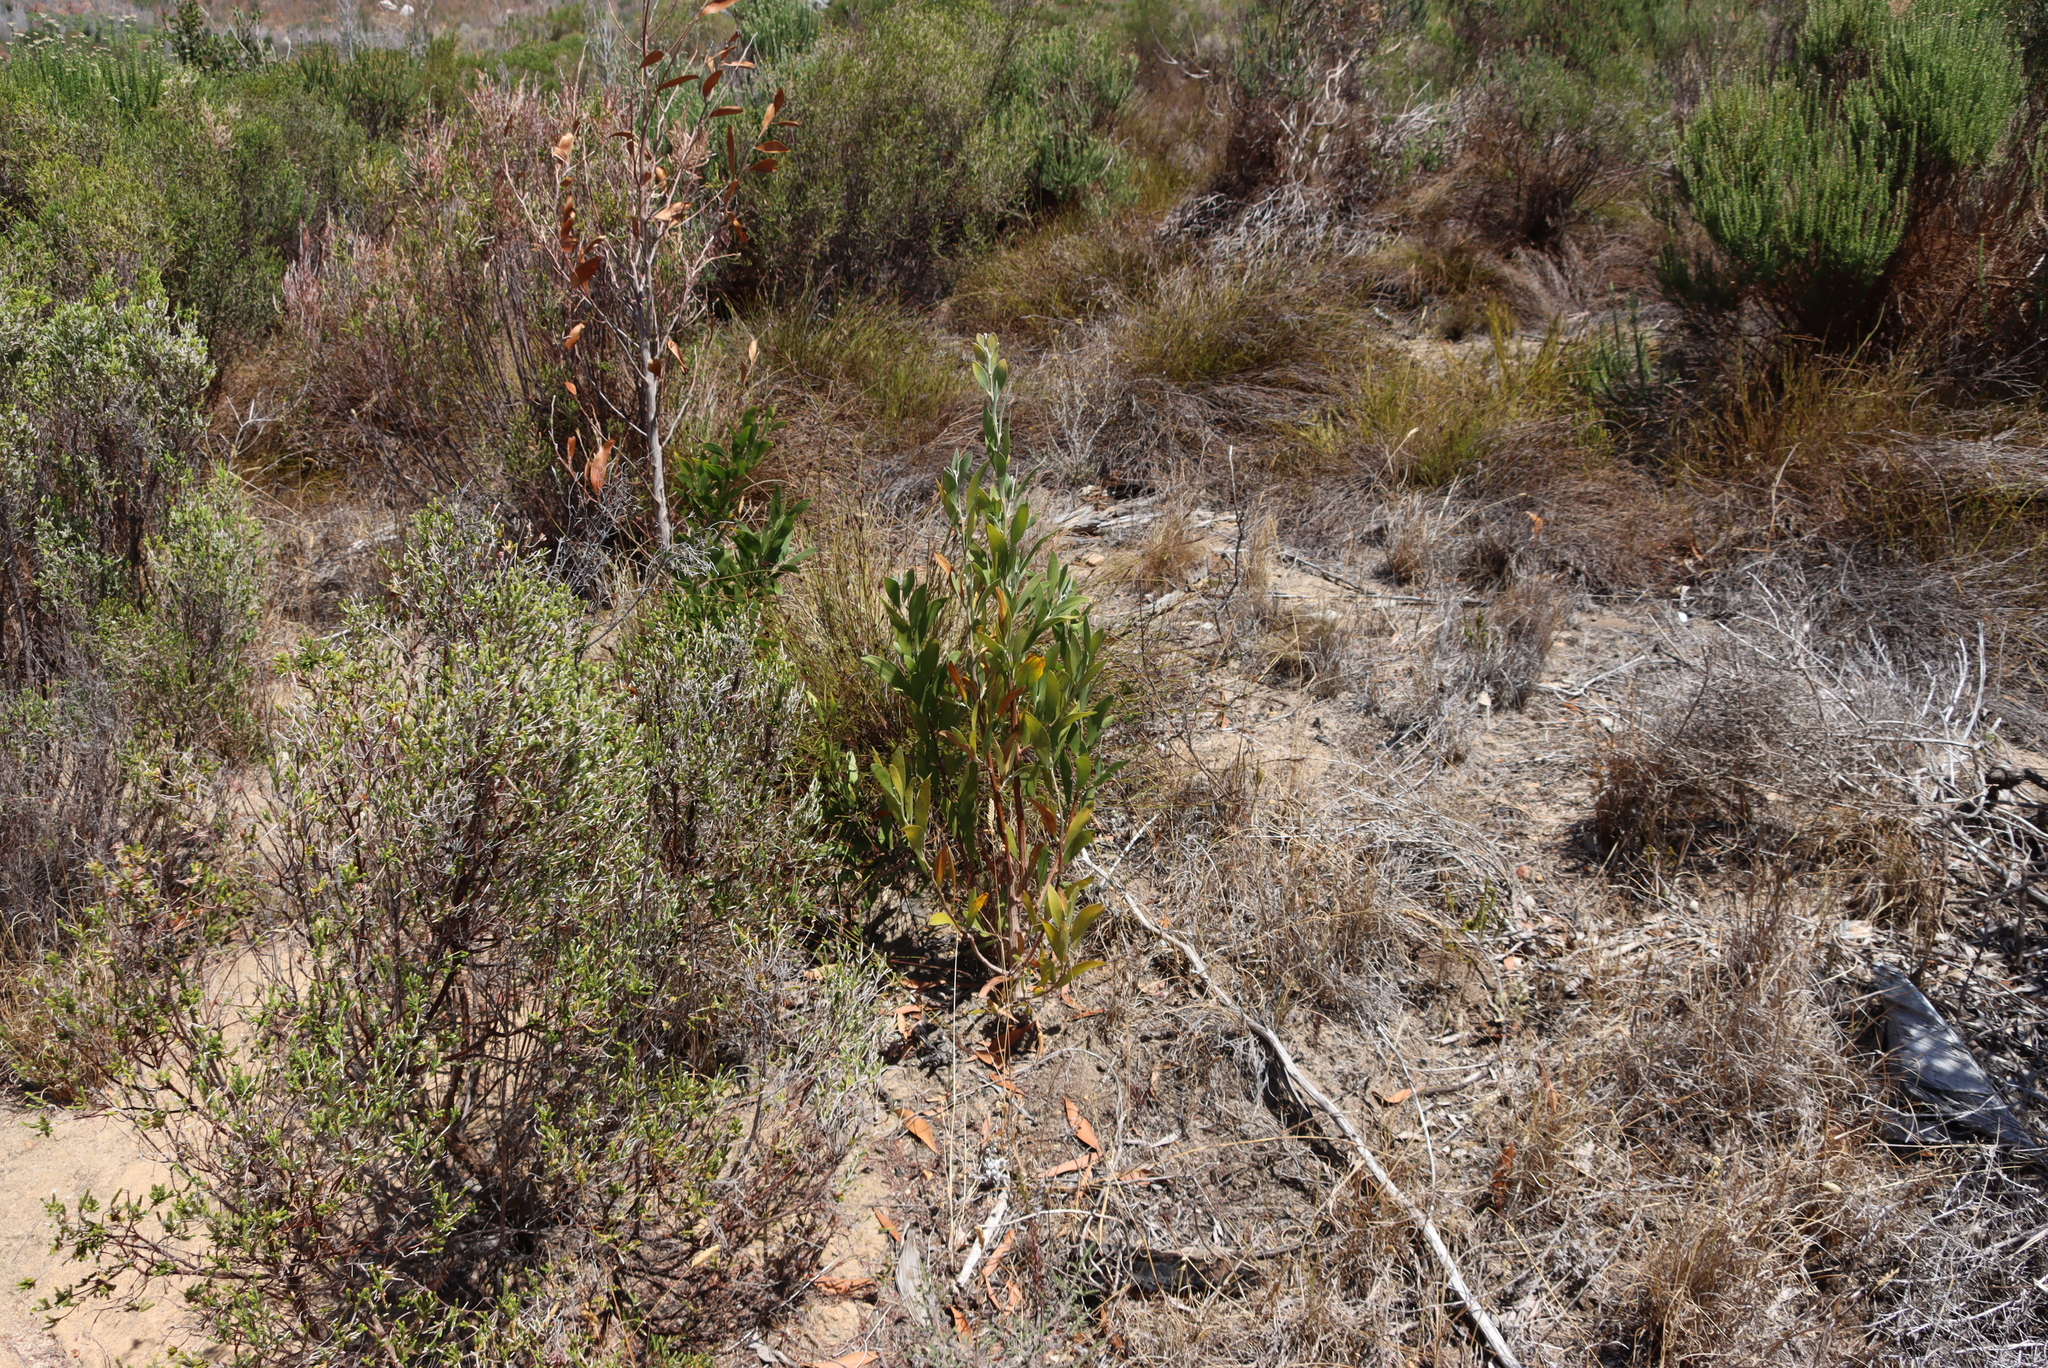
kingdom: Plantae
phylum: Tracheophyta
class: Magnoliopsida
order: Fabales
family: Fabaceae
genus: Acacia
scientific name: Acacia melanoxylon
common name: Blackwood
